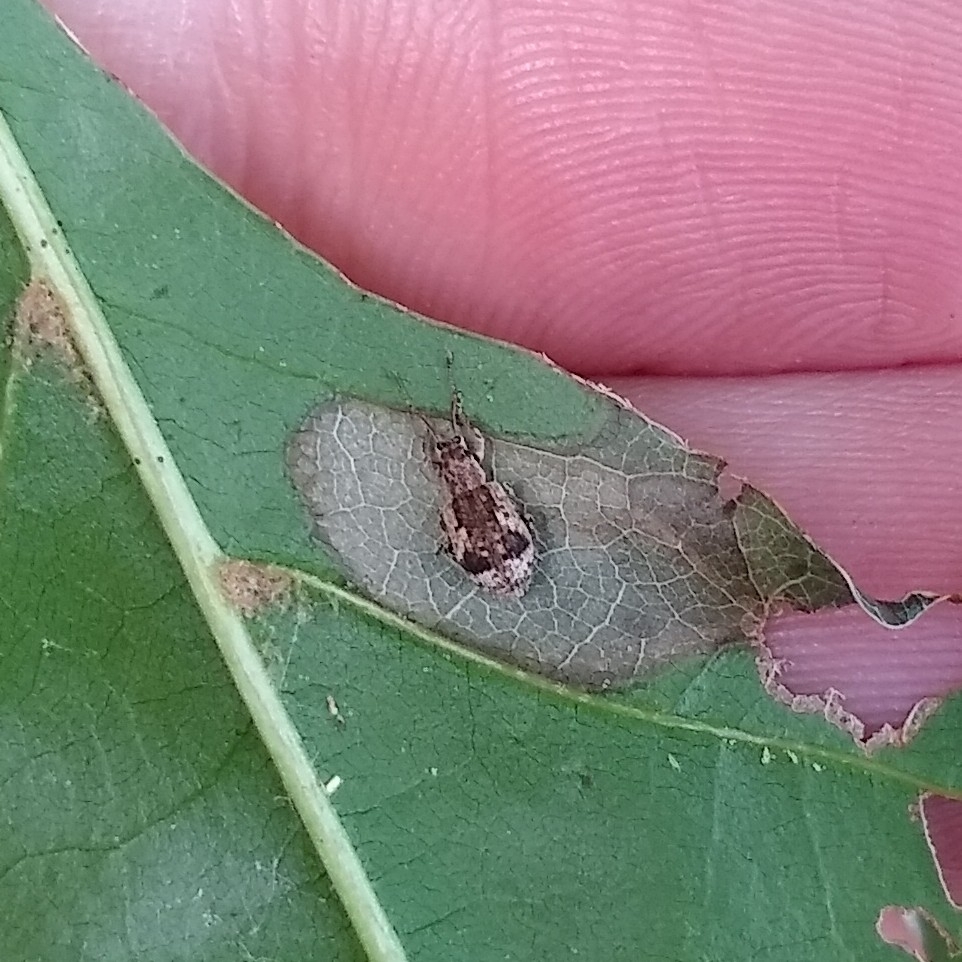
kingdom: Animalia
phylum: Arthropoda
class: Insecta
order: Coleoptera
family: Curculionidae
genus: Pseudoedophrys
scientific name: Pseudoedophrys hilleri
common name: Weevil
